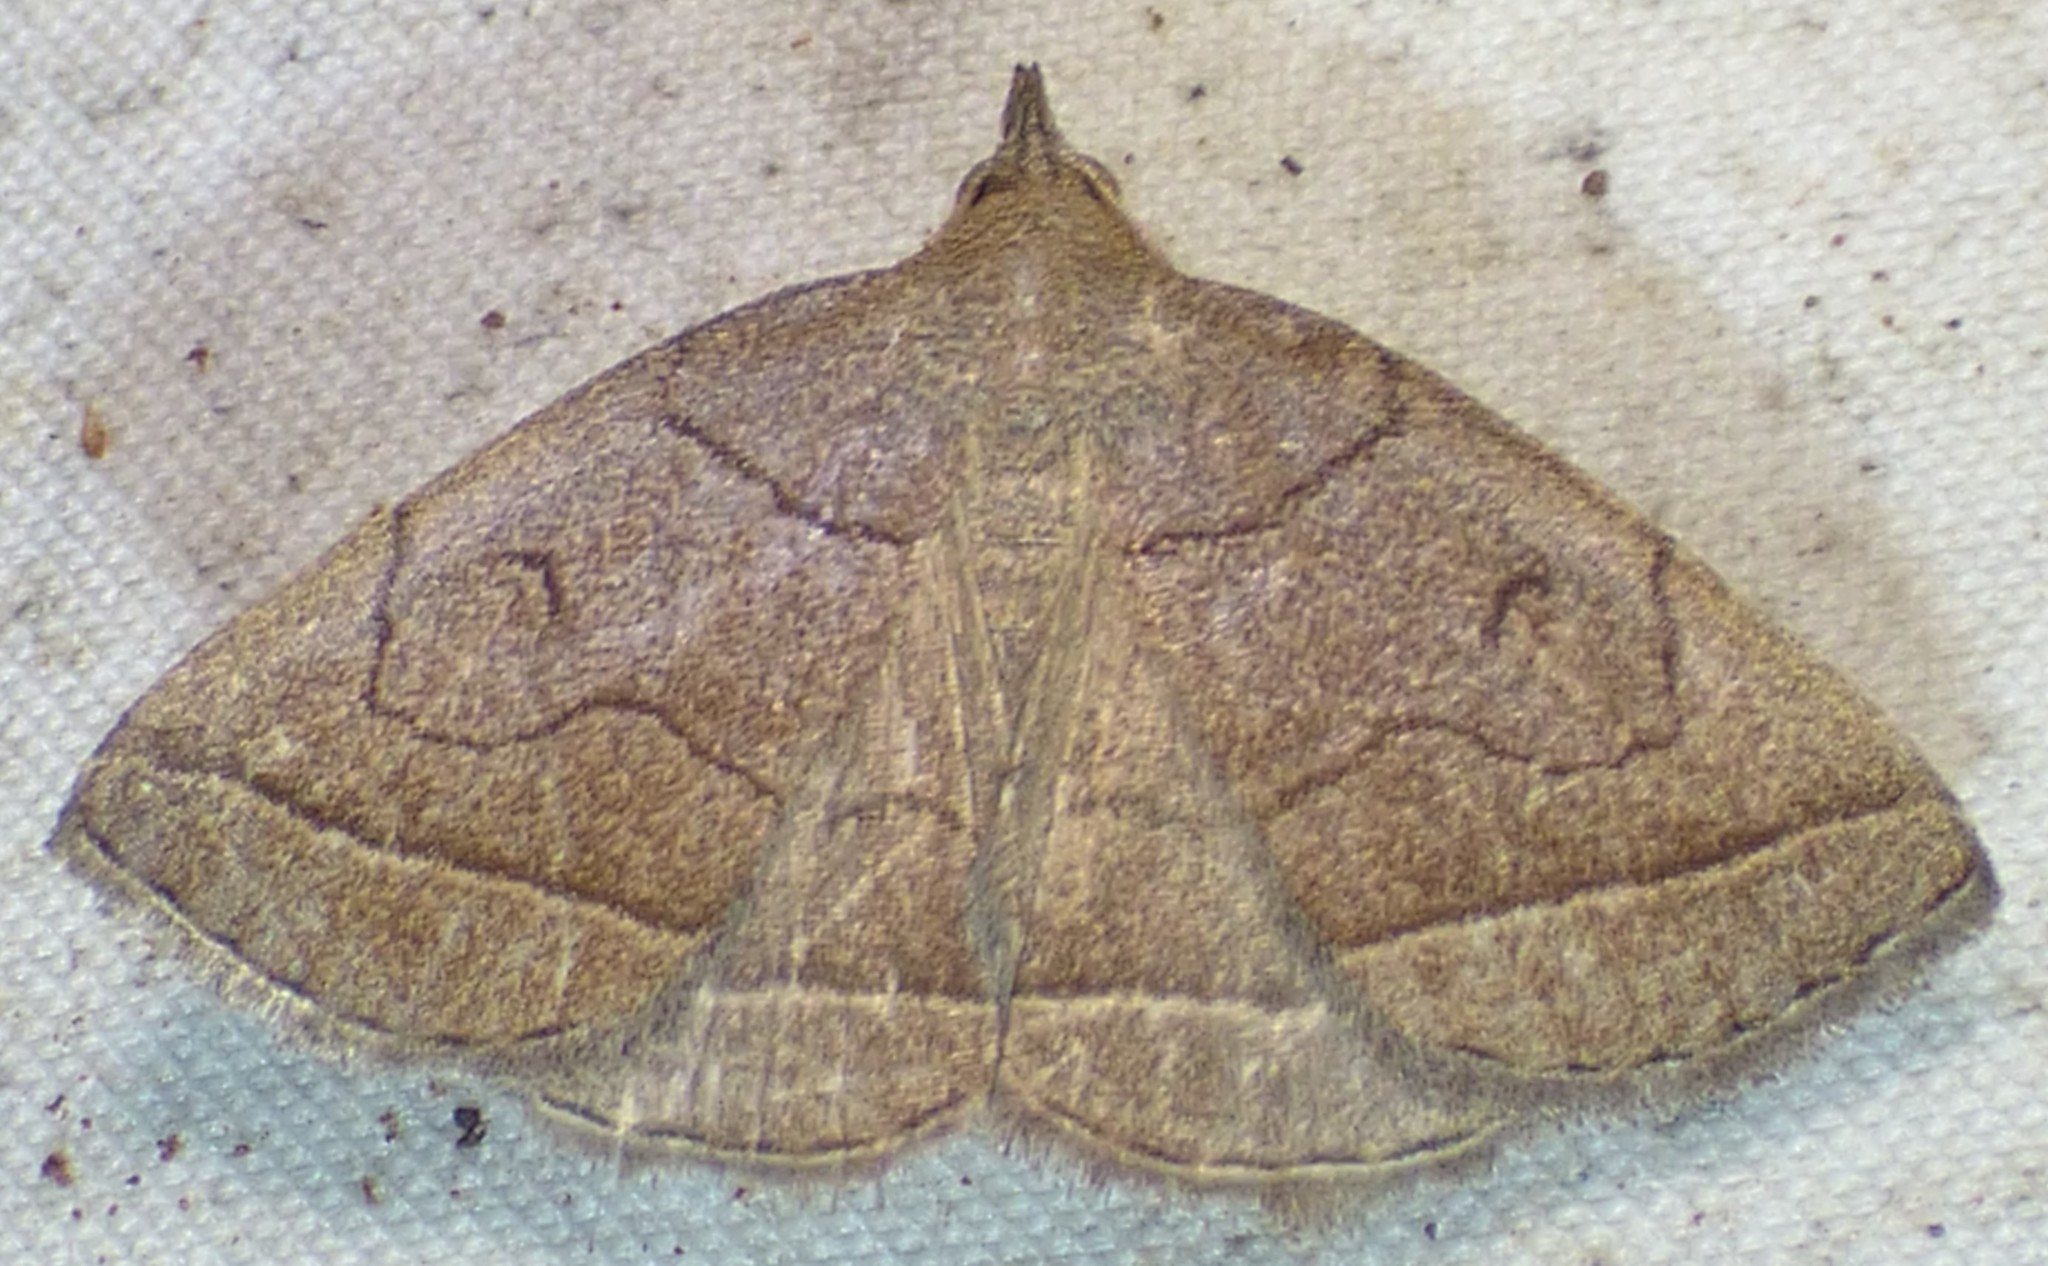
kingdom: Animalia
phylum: Arthropoda
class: Insecta
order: Lepidoptera
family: Erebidae
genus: Zanclognatha
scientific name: Zanclognatha cruralis
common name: Early fan-foot
